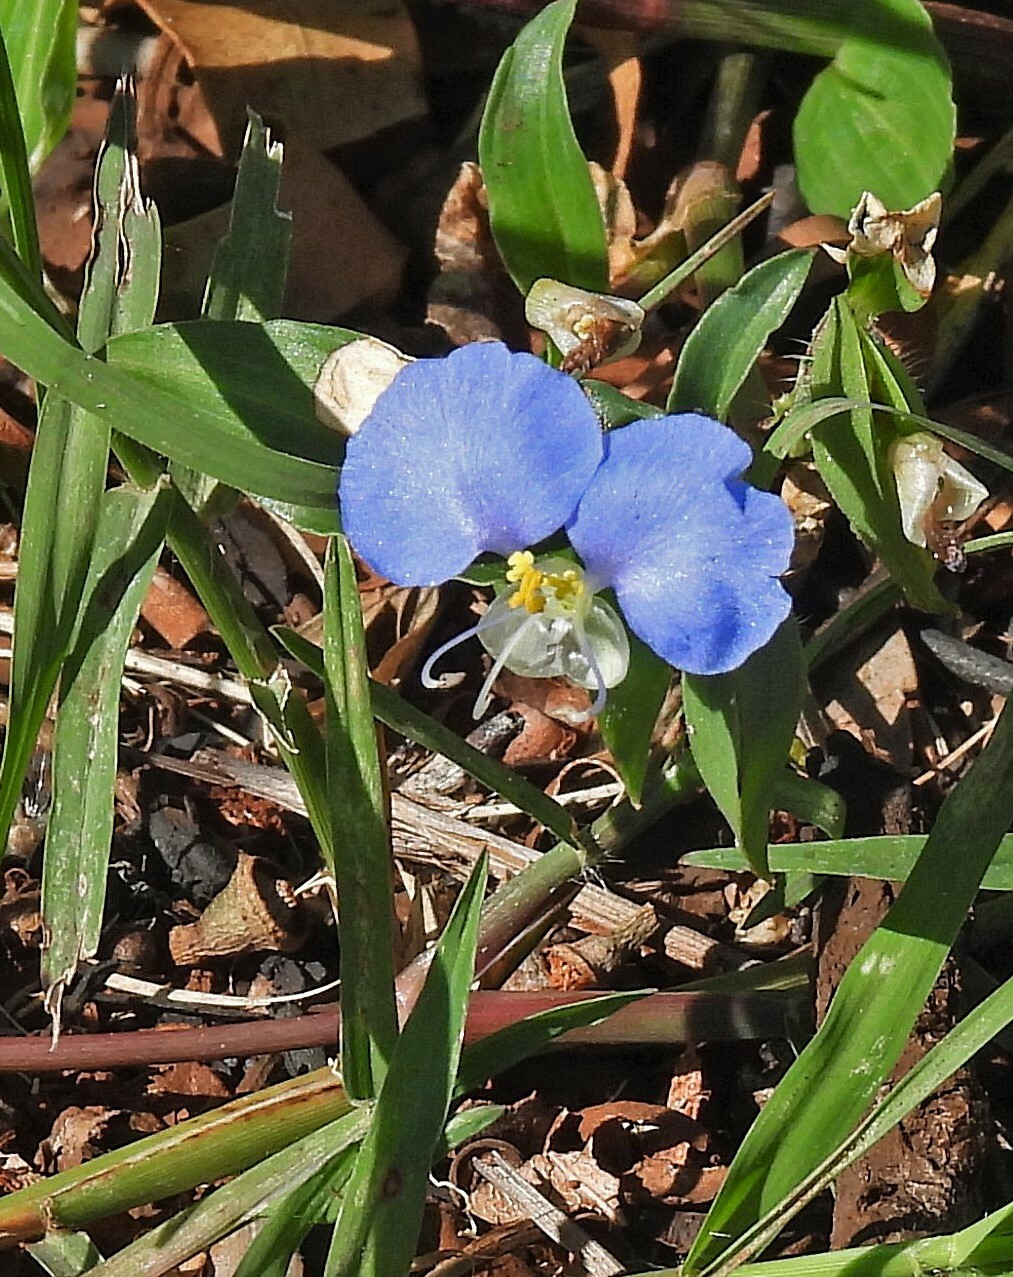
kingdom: Plantae
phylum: Tracheophyta
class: Liliopsida
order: Commelinales
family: Commelinaceae
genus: Commelina
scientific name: Commelina erecta
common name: Blousel blommetjie
